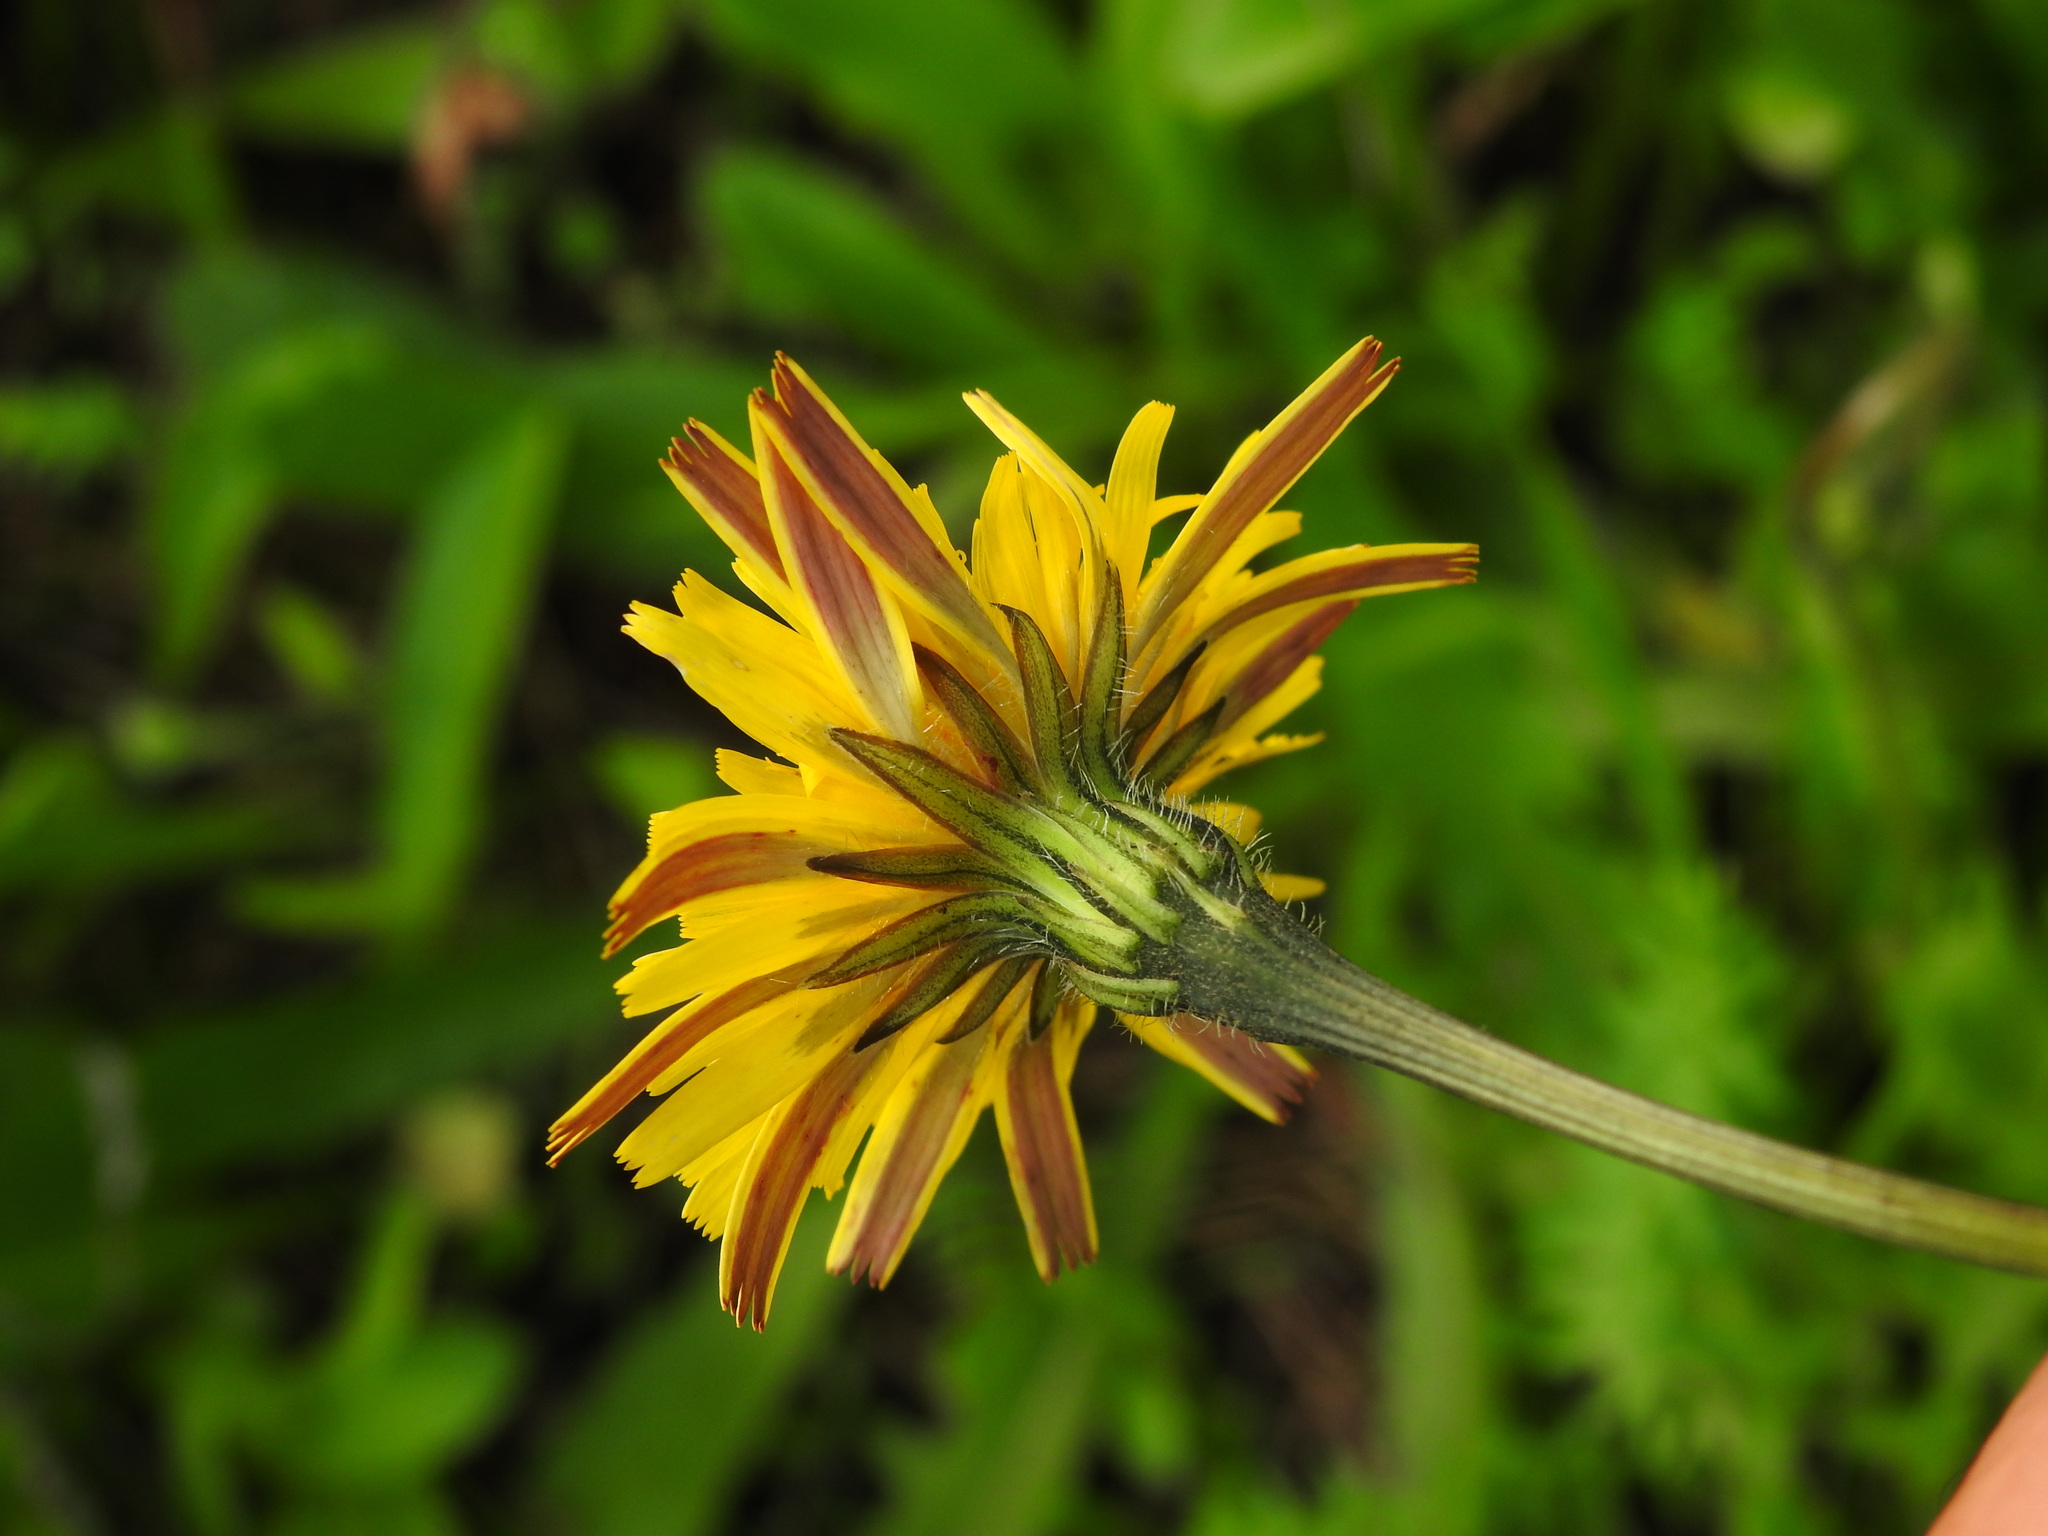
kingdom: Plantae
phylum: Tracheophyta
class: Magnoliopsida
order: Asterales
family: Asteraceae
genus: Leontodon
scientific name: Leontodon tuberosus
